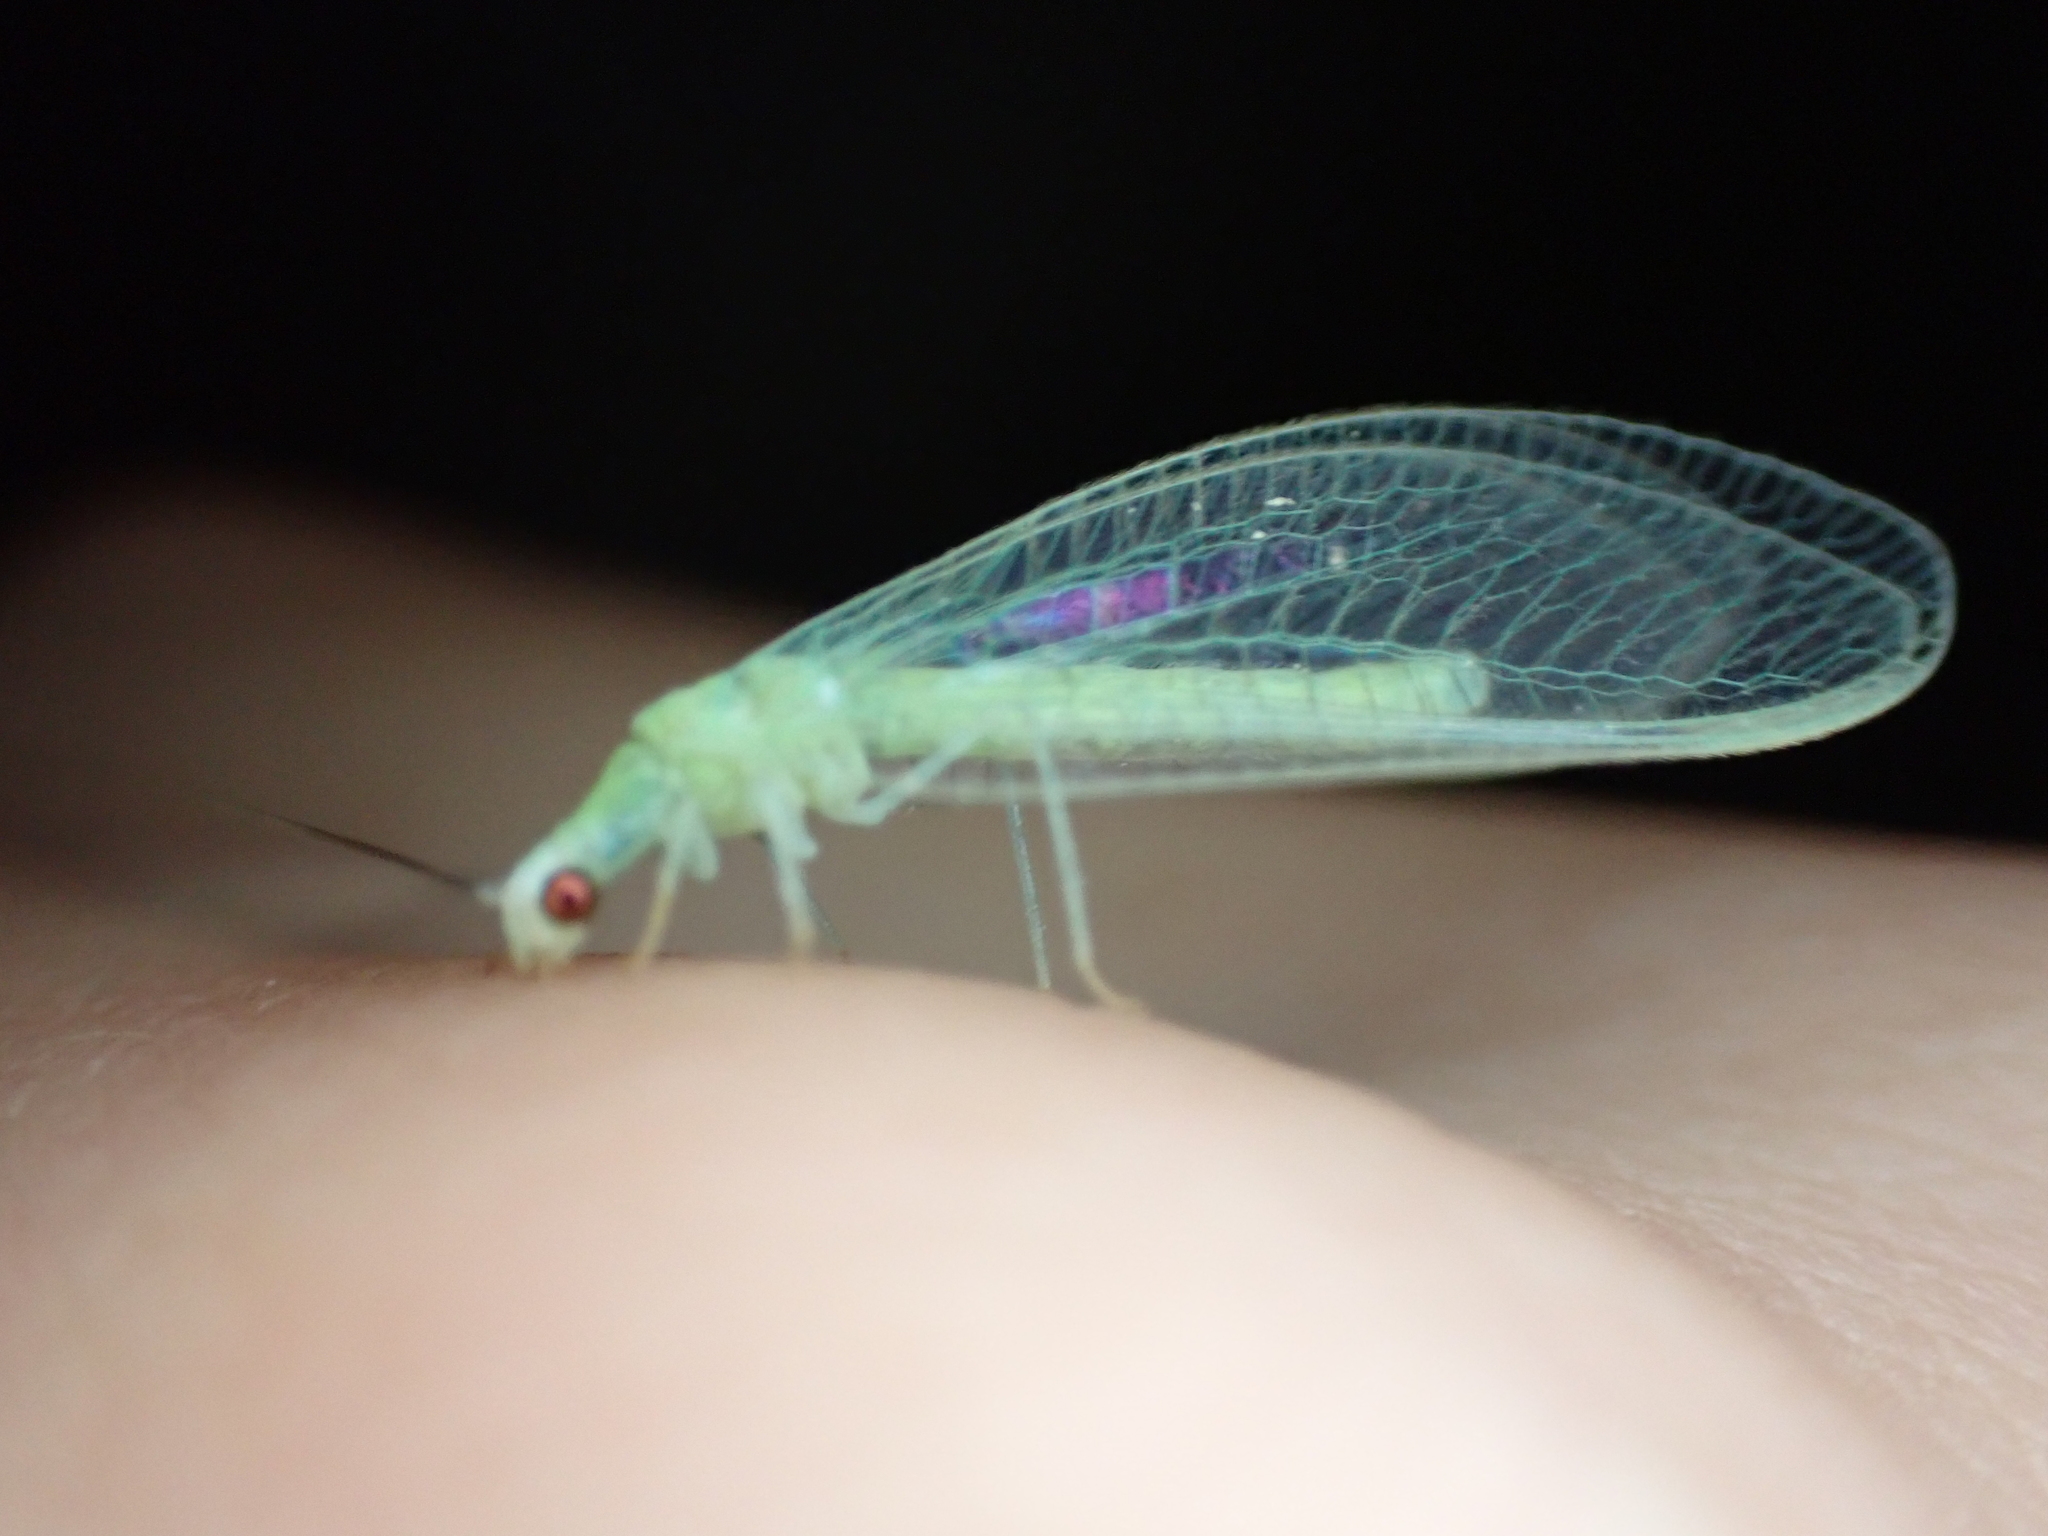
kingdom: Animalia
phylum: Arthropoda
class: Insecta
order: Neuroptera
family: Chrysopidae
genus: Chrysopa
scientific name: Chrysopa nigricornis
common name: Black-horned green lacewing
